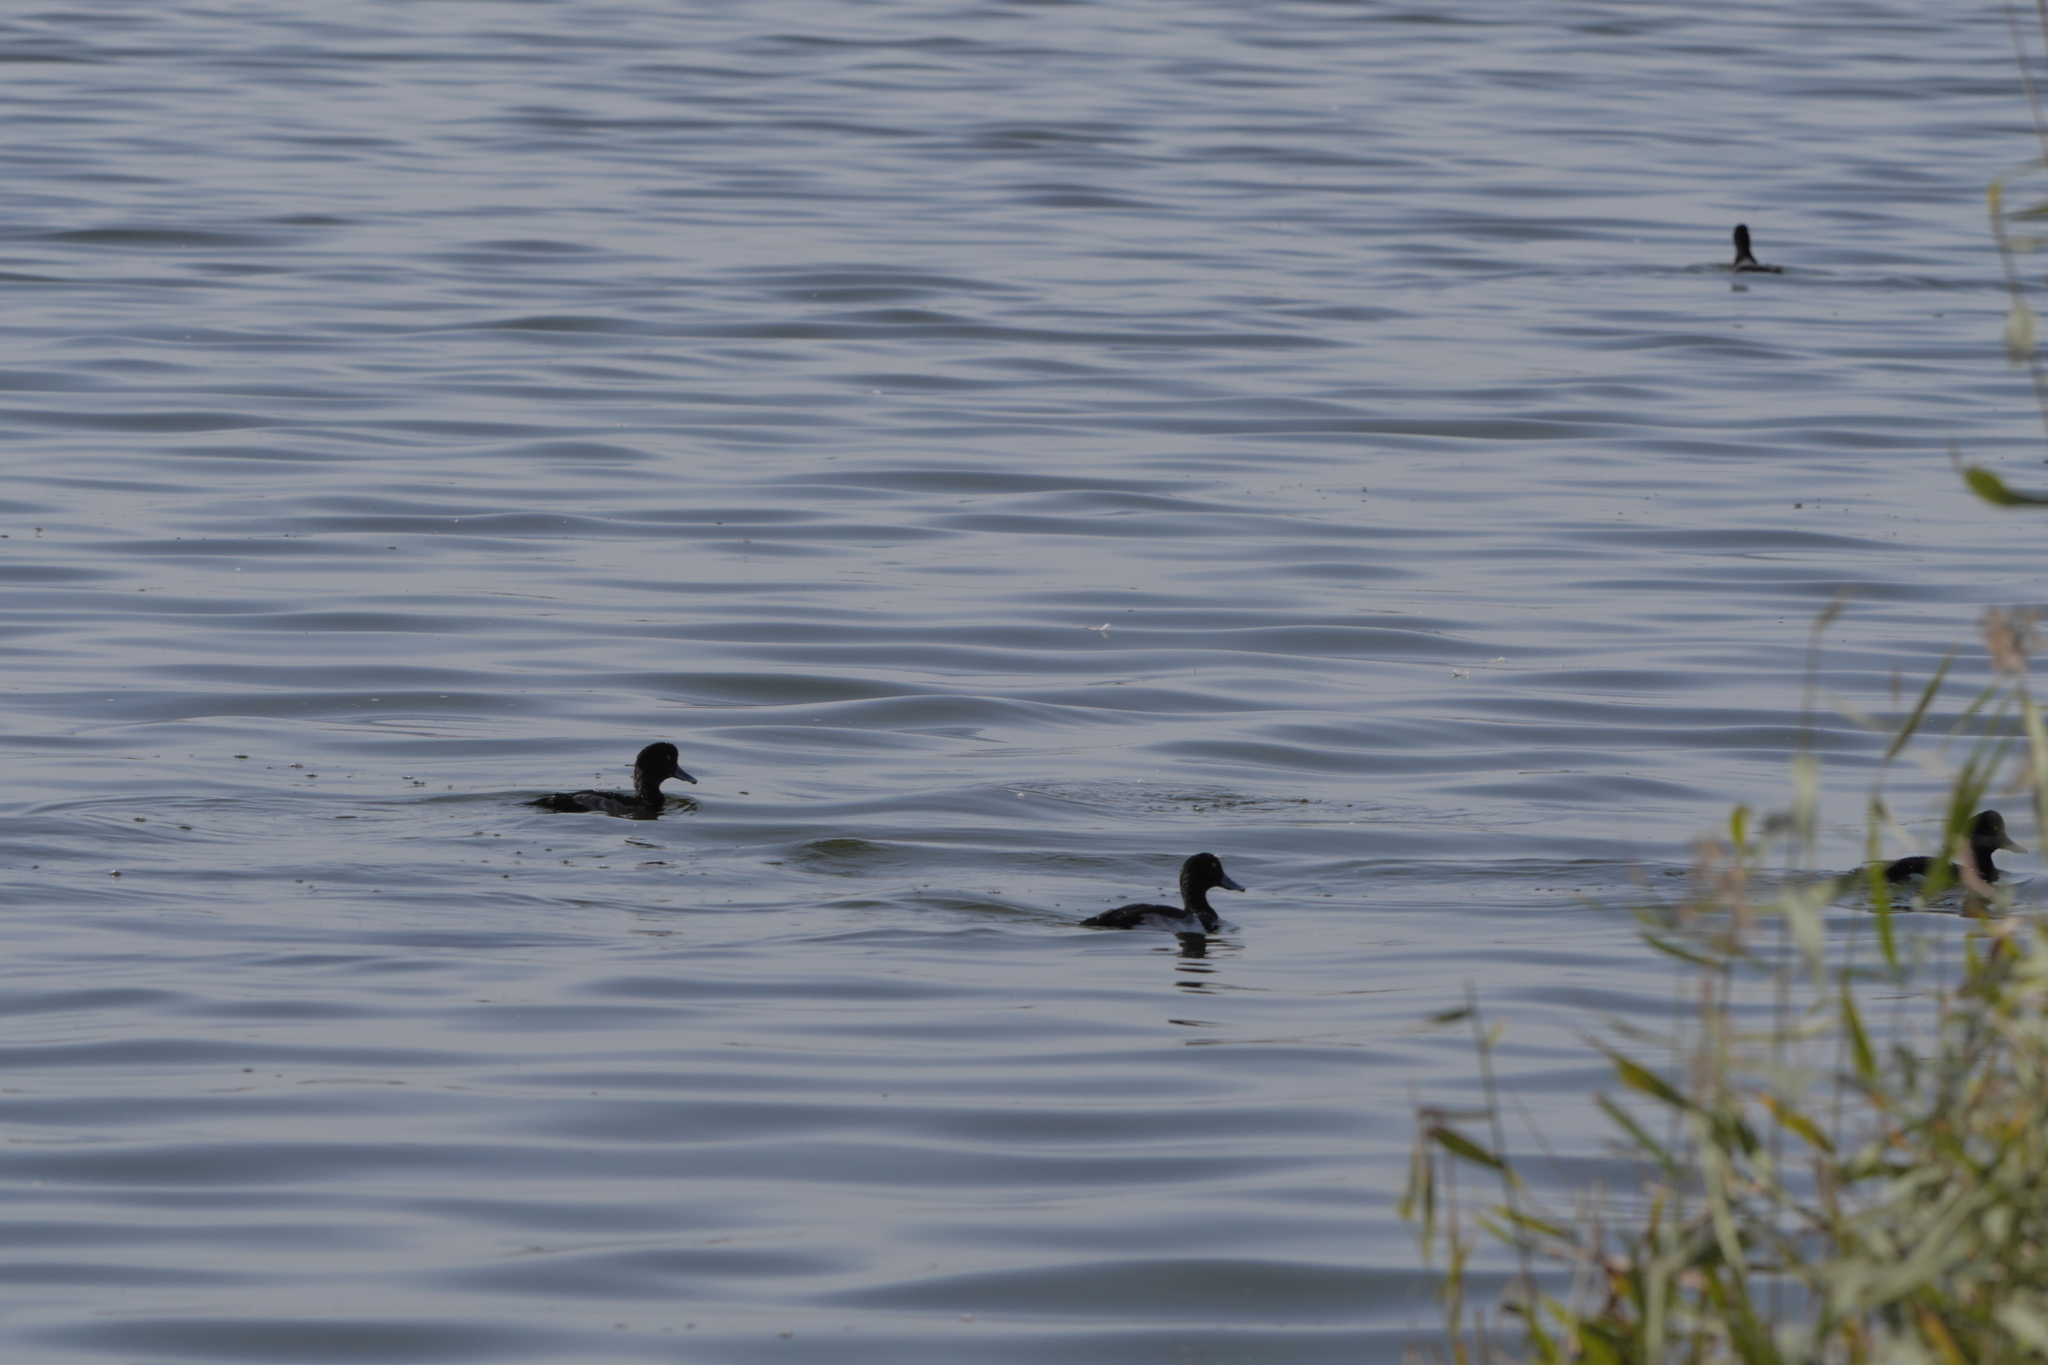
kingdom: Animalia
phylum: Chordata
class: Aves
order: Anseriformes
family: Anatidae
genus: Aythya
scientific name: Aythya fuligula
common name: Tufted duck
